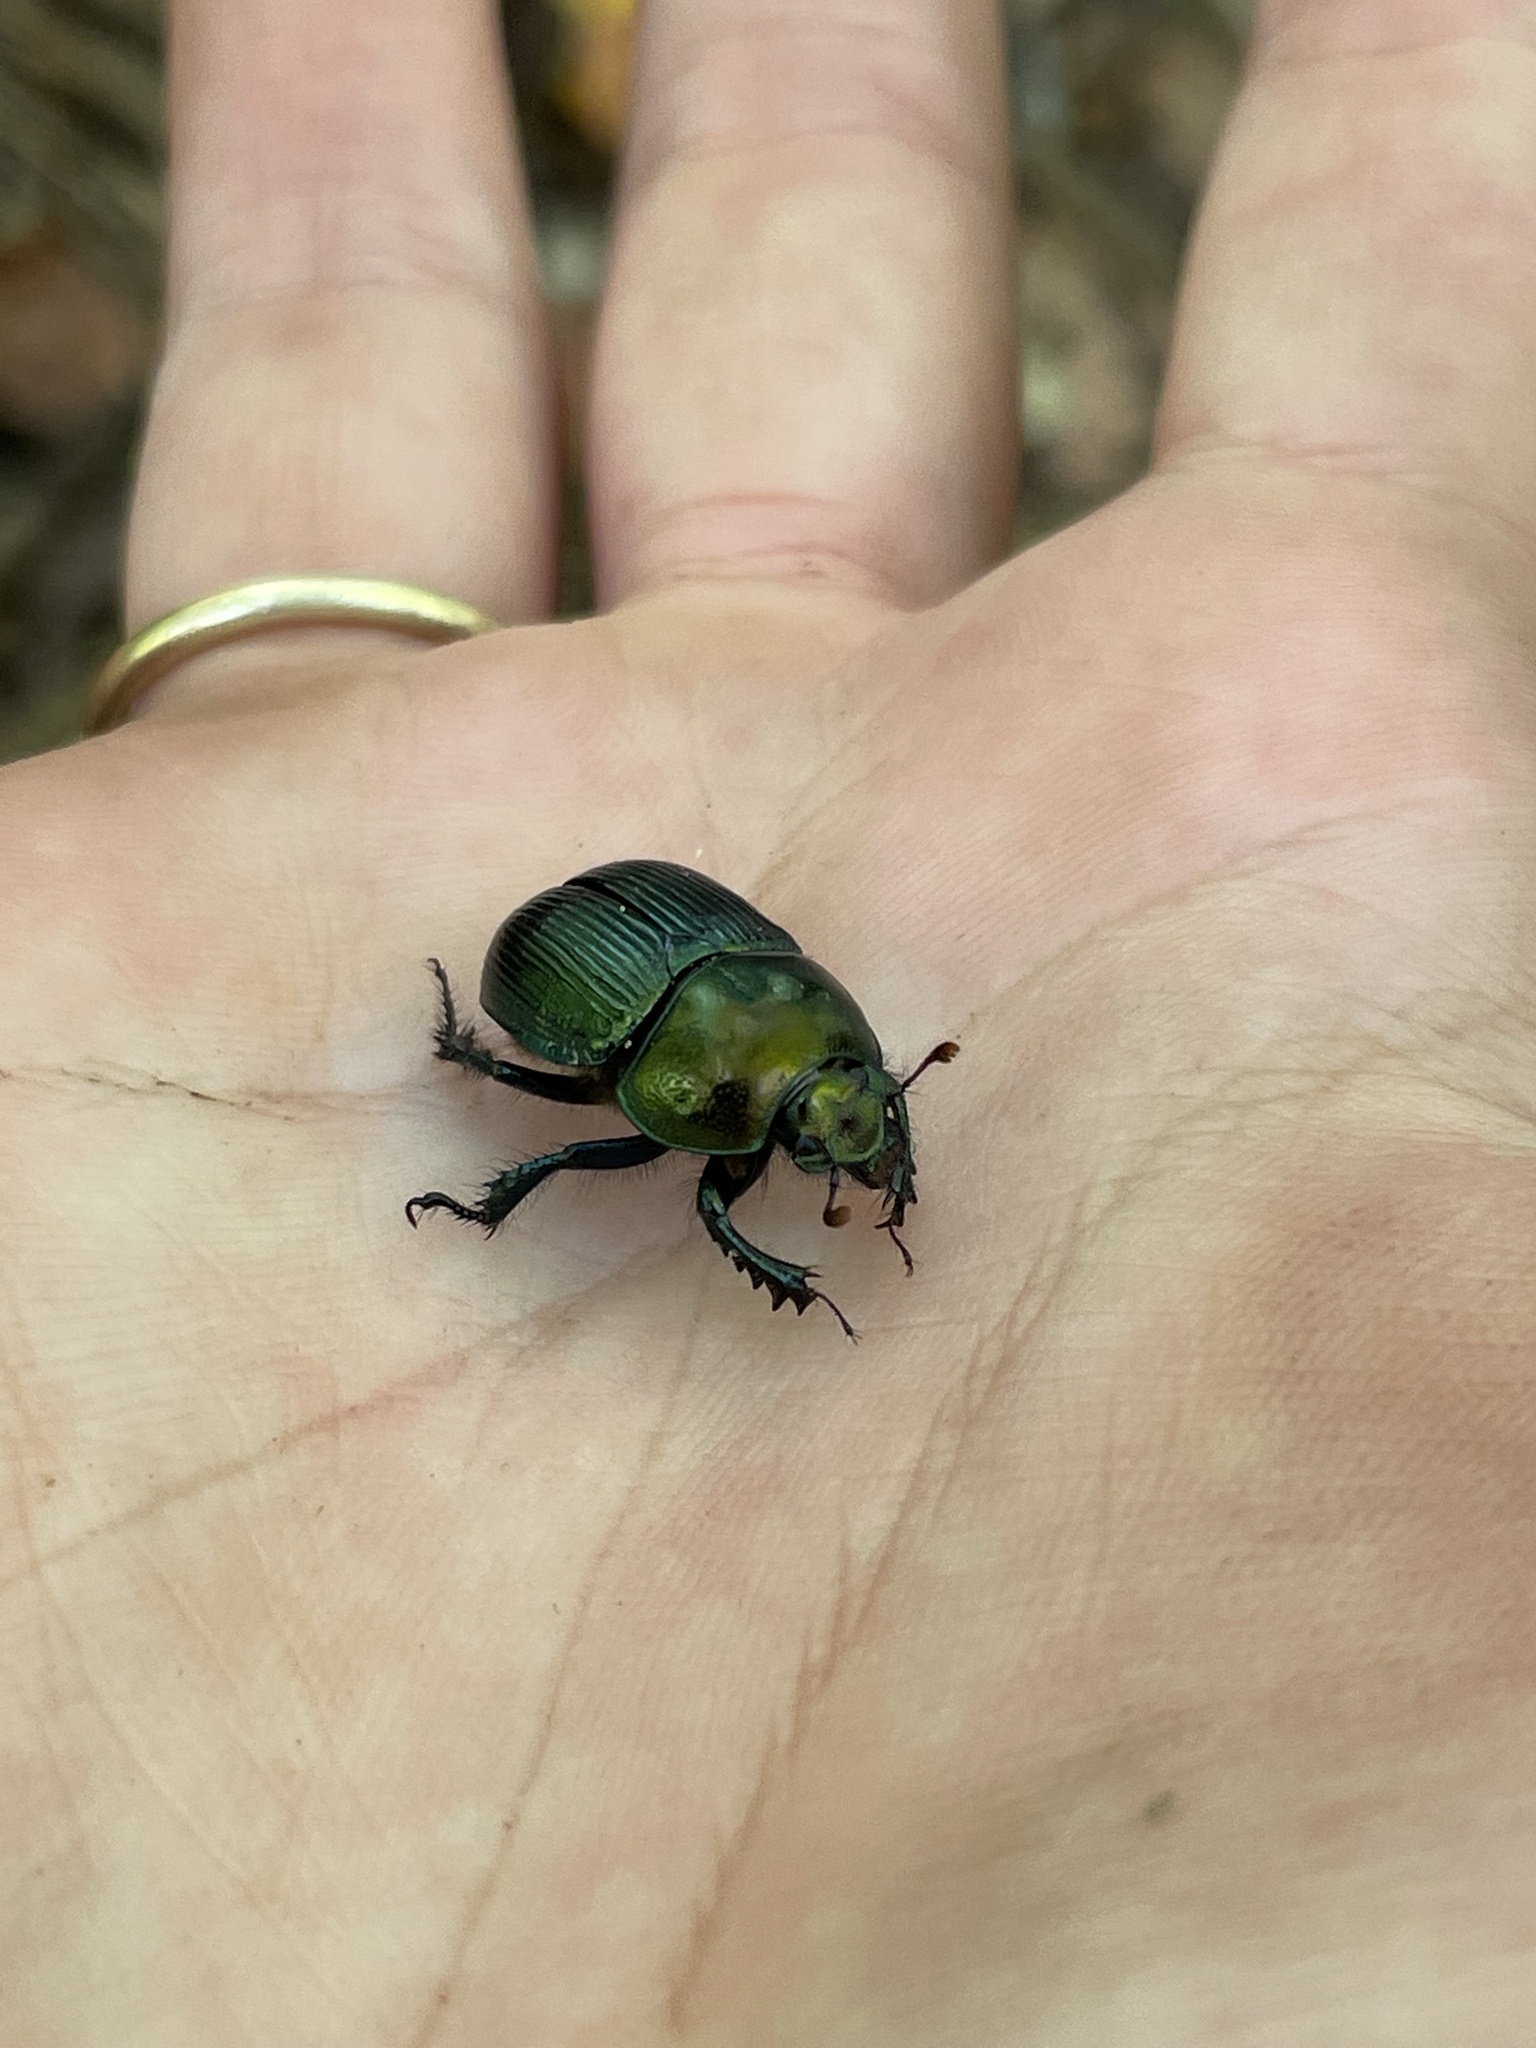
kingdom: Animalia
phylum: Arthropoda
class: Insecta
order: Coleoptera
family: Geotrupidae
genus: Geotrupes
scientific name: Geotrupes splendidus
